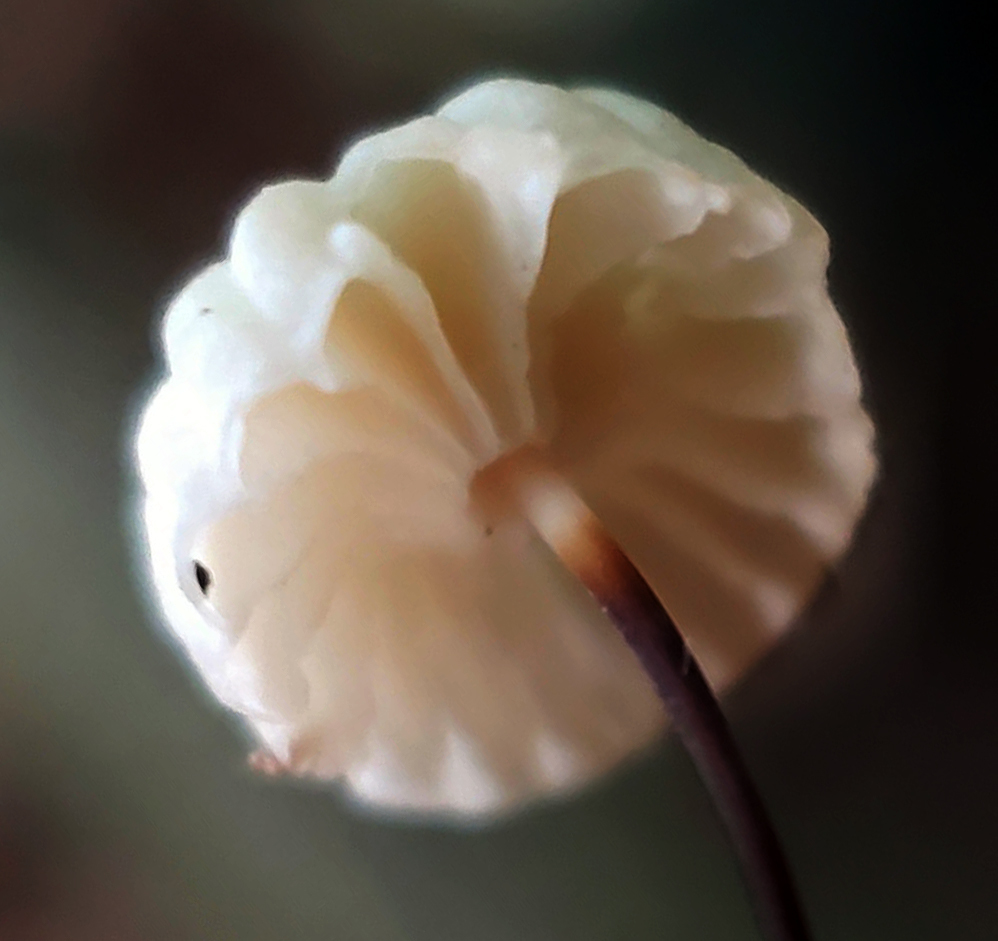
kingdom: Fungi
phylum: Basidiomycota
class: Agaricomycetes
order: Agaricales
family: Marasmiaceae
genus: Marasmius
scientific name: Marasmius rotula
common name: Collared parachute
